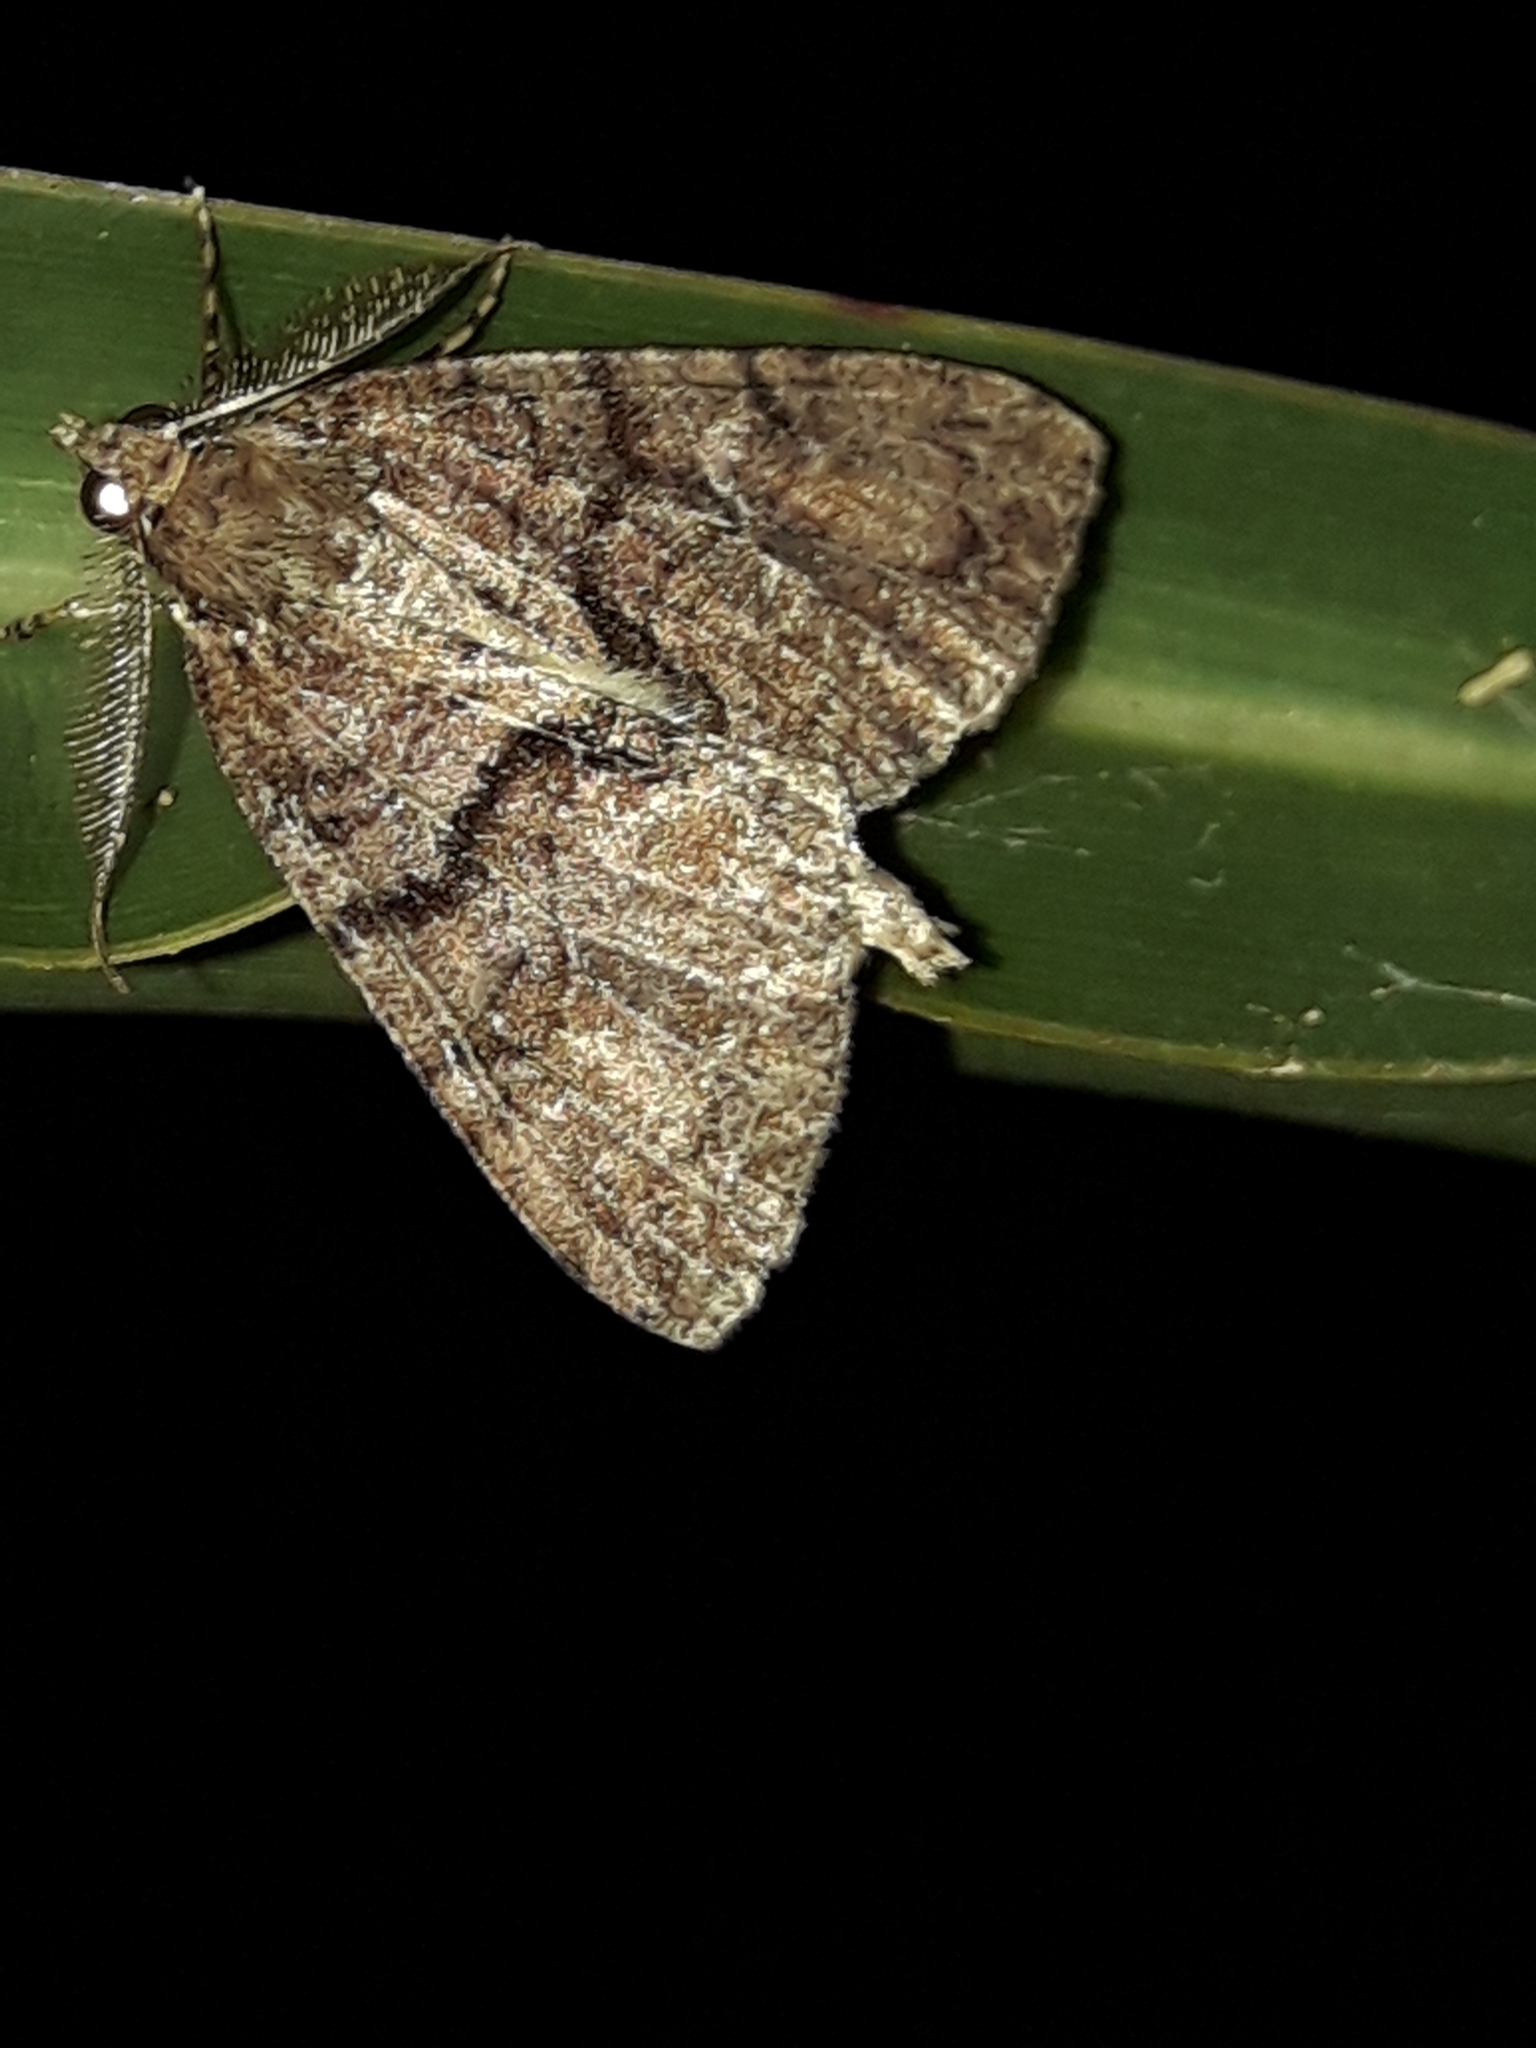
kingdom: Animalia
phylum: Arthropoda
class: Insecta
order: Lepidoptera
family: Geometridae
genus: Pseudocoremia
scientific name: Pseudocoremia suavis
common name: Common forest looper
